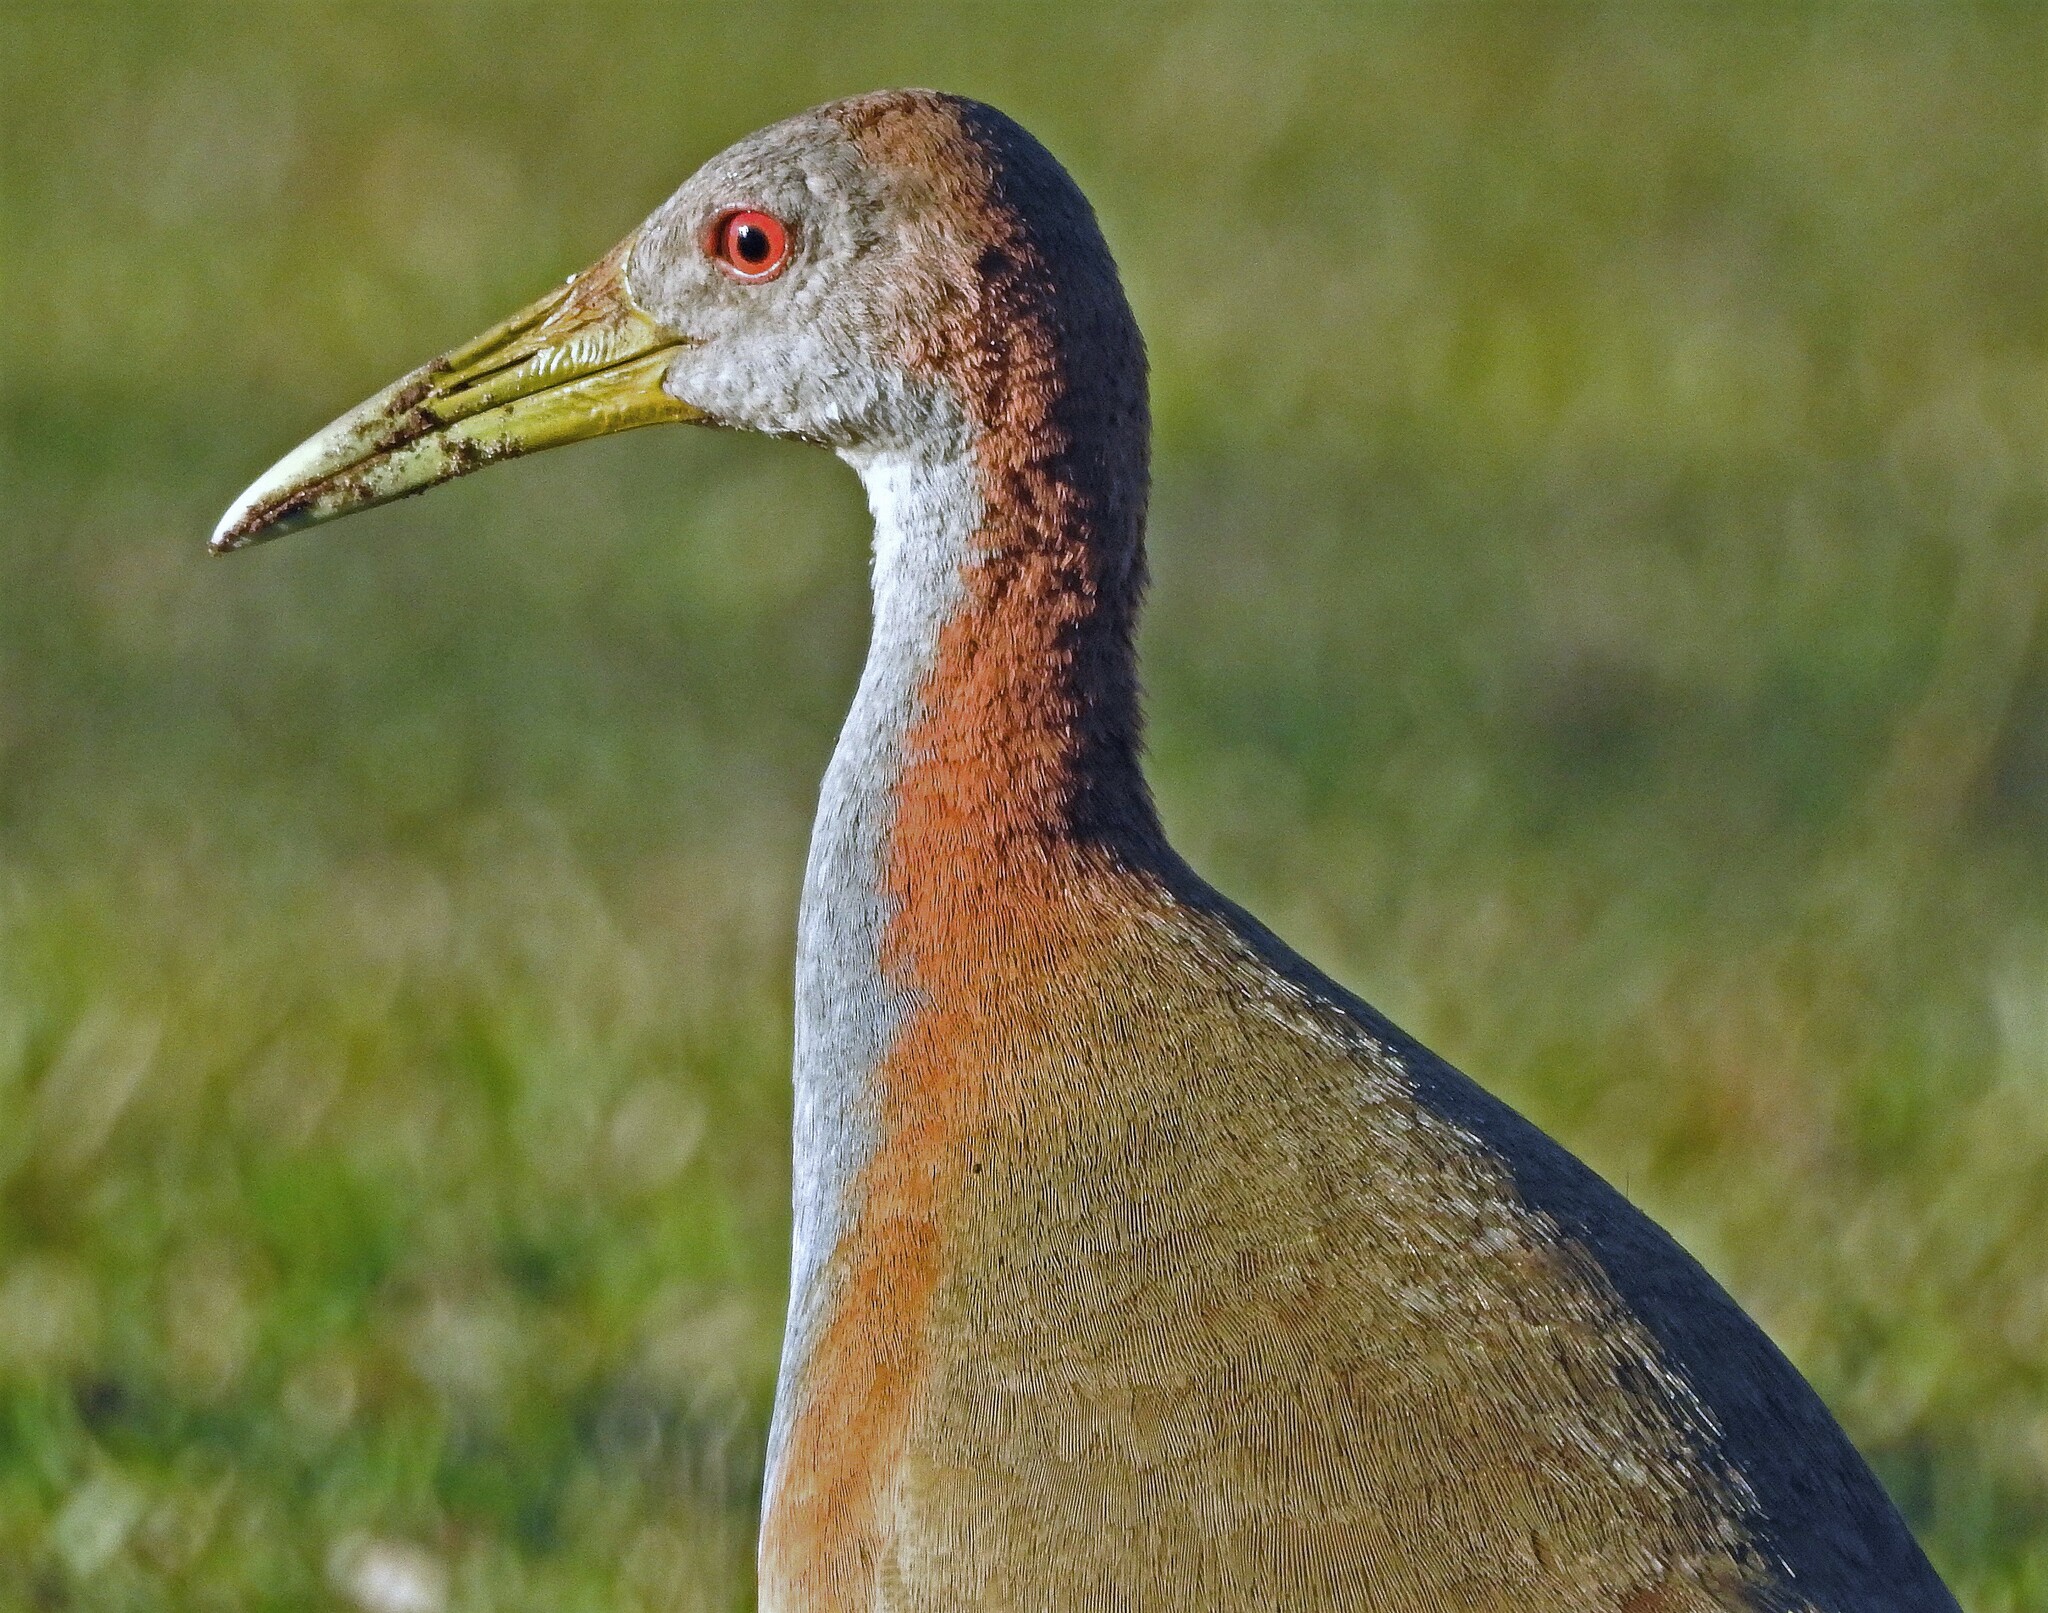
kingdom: Animalia
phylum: Chordata
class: Aves
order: Gruiformes
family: Rallidae
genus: Aramides
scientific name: Aramides ypecaha
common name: Giant wood rail
